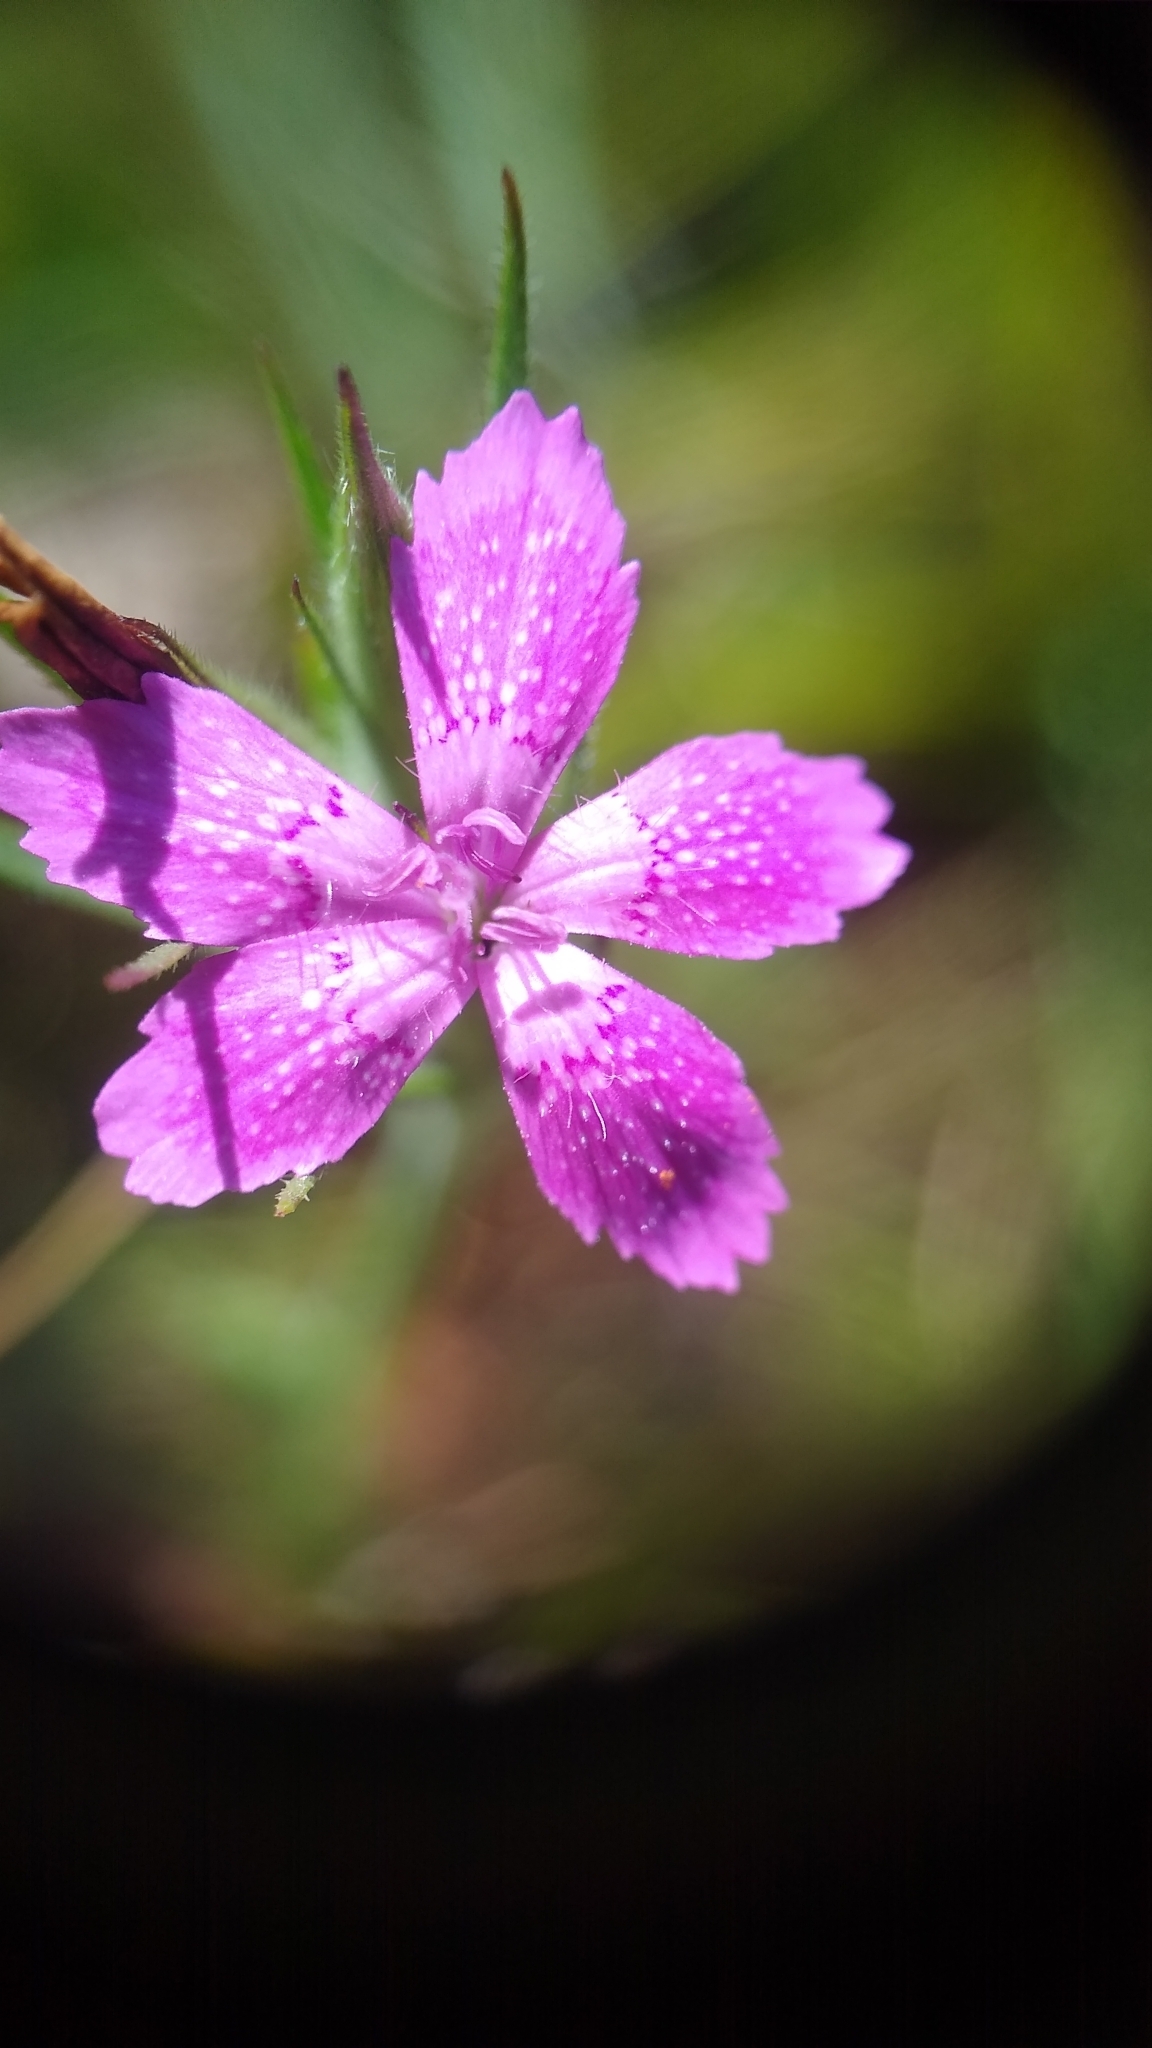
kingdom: Plantae
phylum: Tracheophyta
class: Magnoliopsida
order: Caryophyllales
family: Caryophyllaceae
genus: Dianthus
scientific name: Dianthus armeria
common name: Deptford pink
